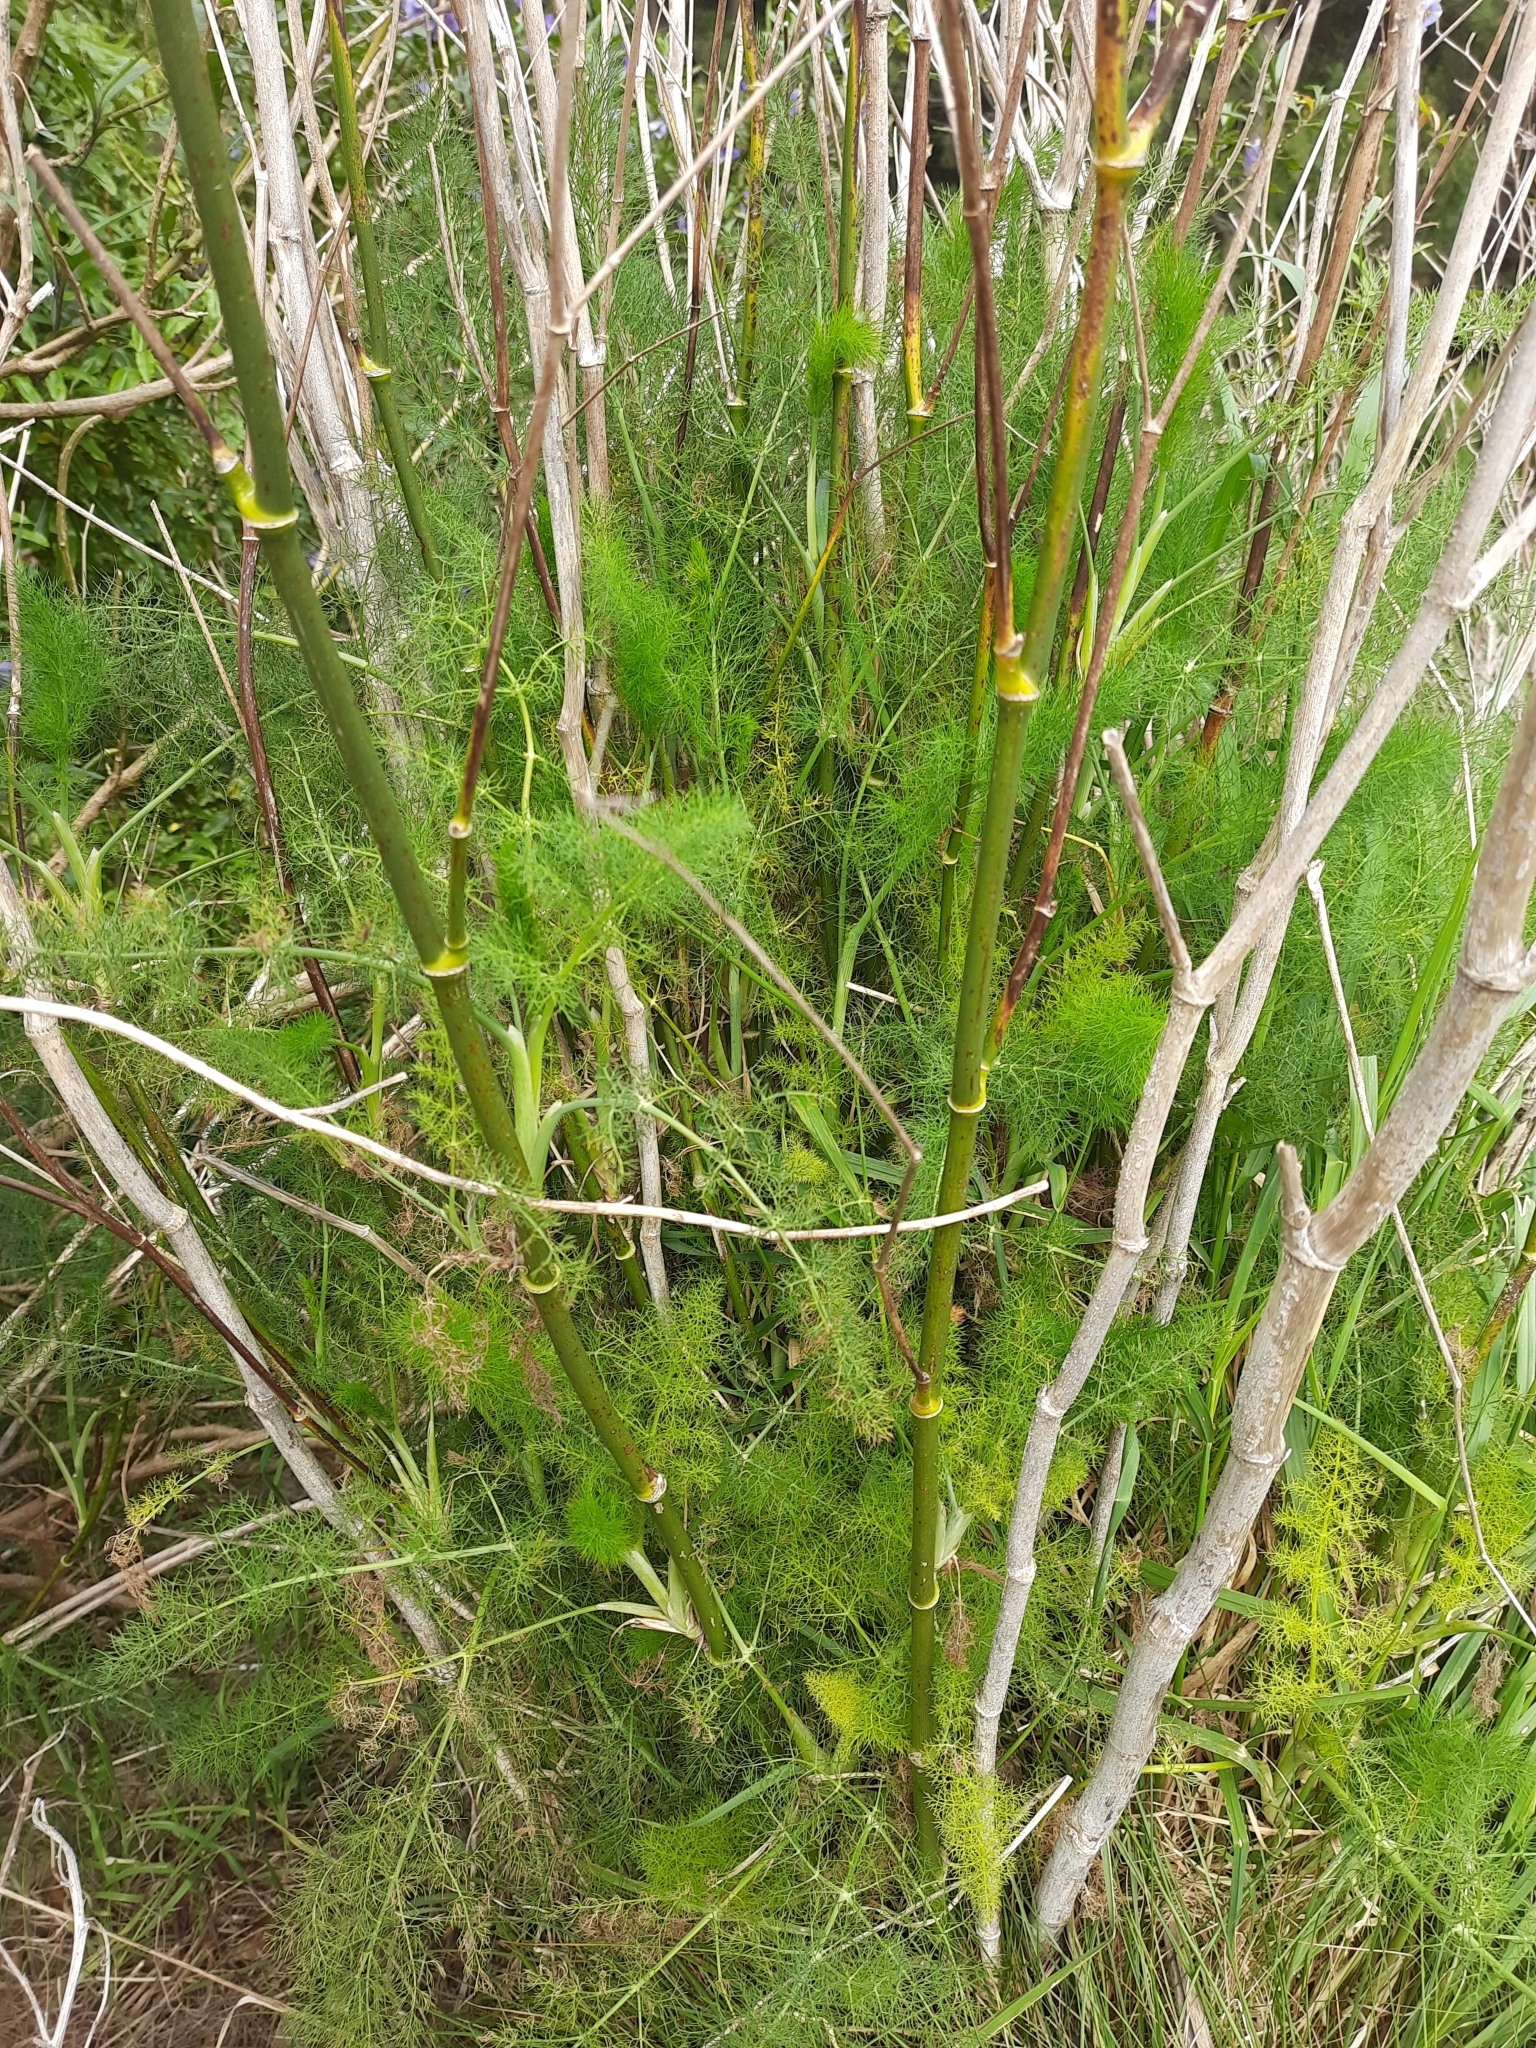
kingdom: Plantae
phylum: Tracheophyta
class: Magnoliopsida
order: Apiales
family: Apiaceae
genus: Foeniculum
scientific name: Foeniculum vulgare
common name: Fennel
